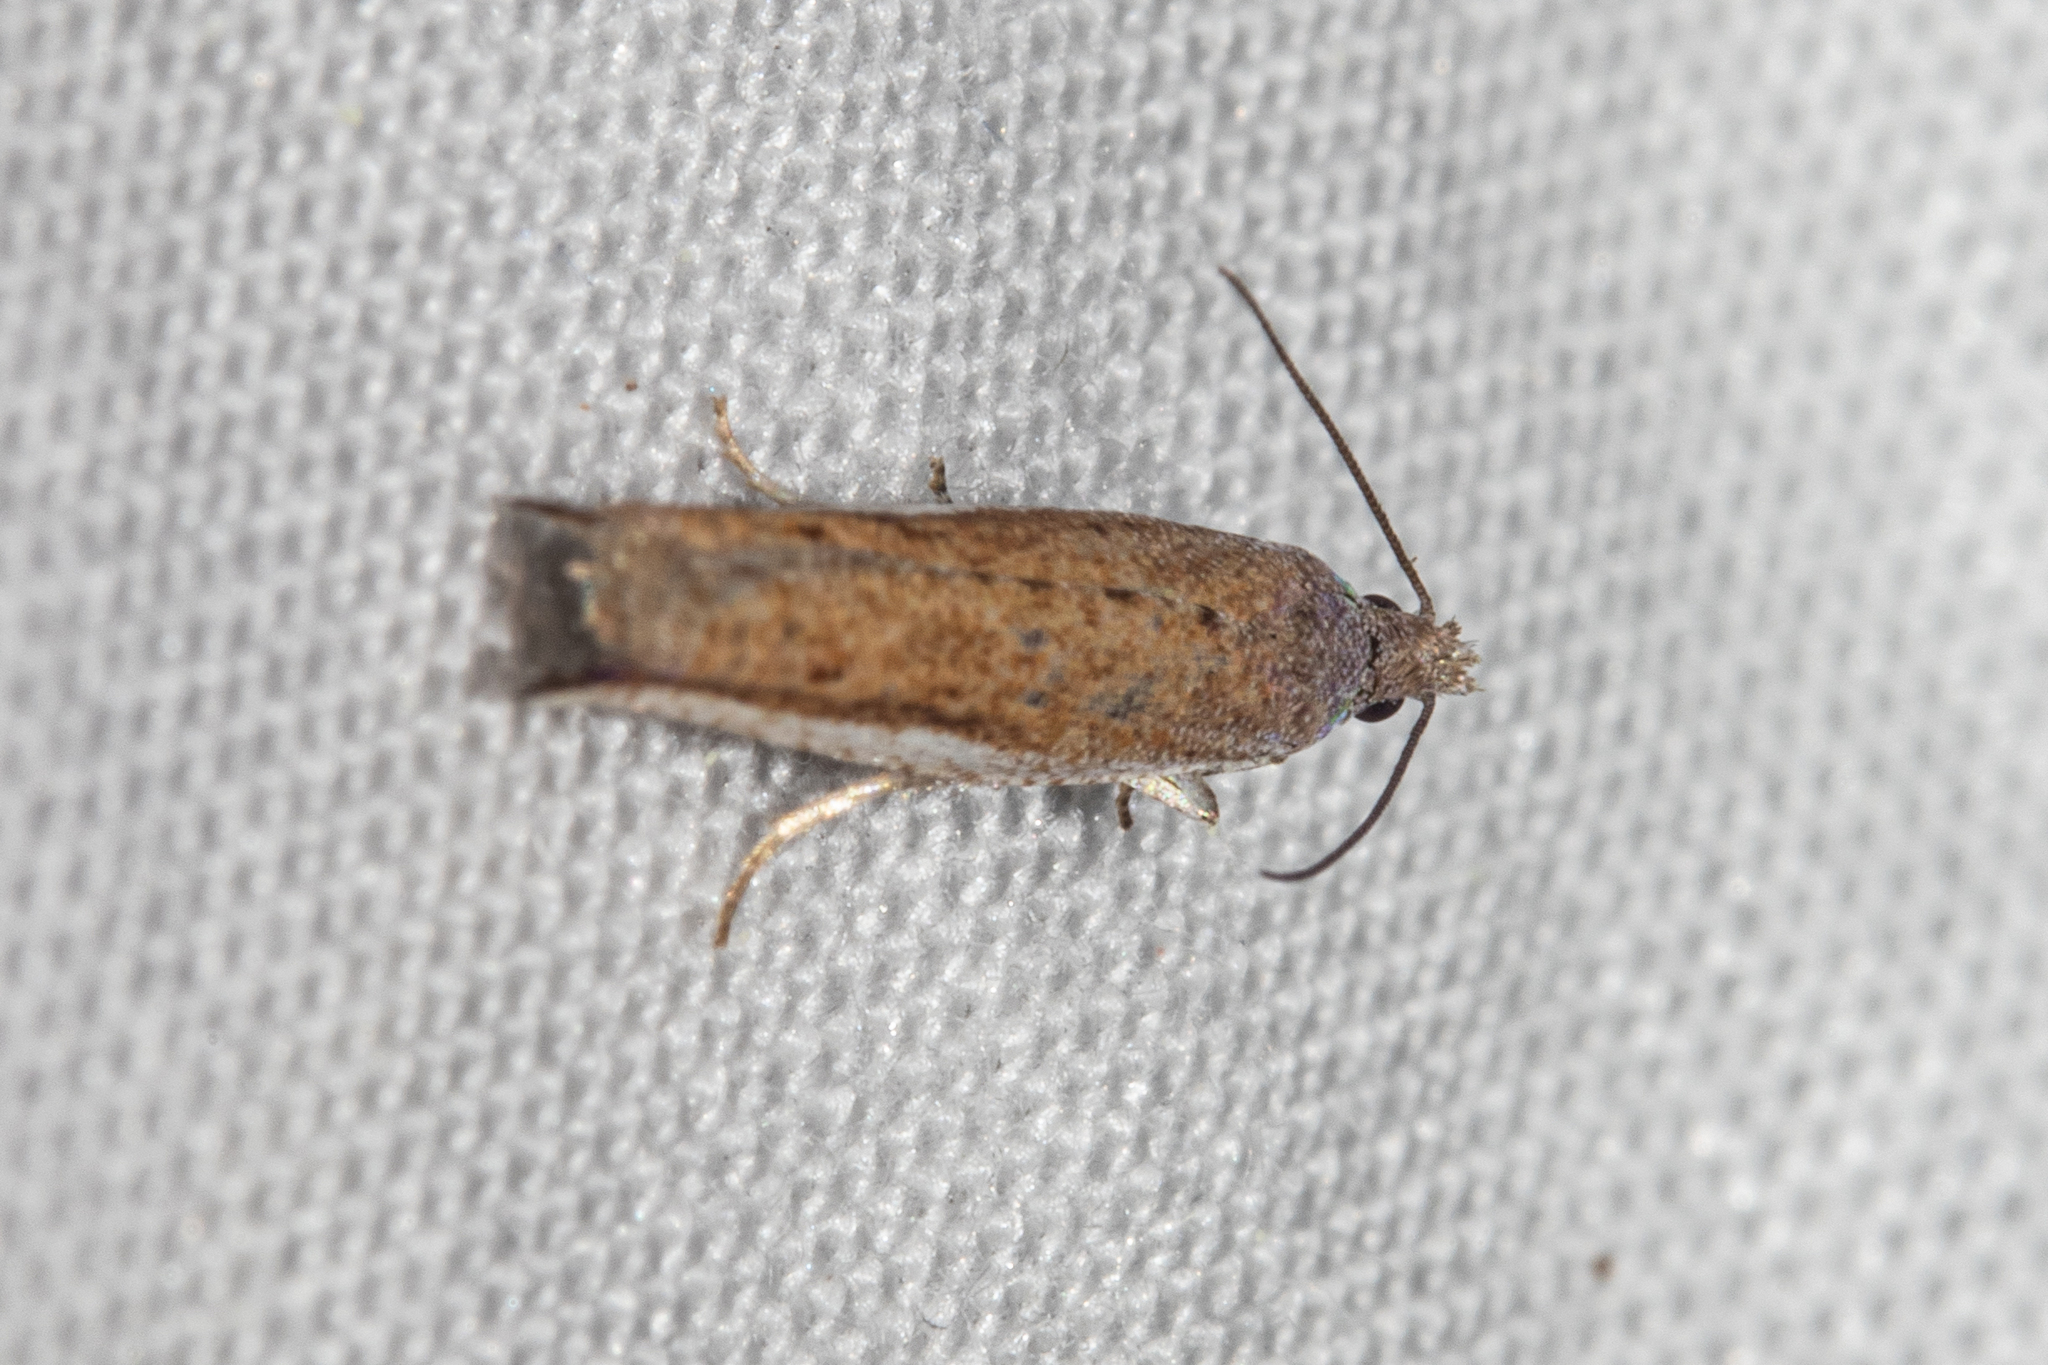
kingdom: Animalia
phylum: Arthropoda
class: Insecta
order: Lepidoptera
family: Tortricidae
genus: Holocola
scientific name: Holocola
